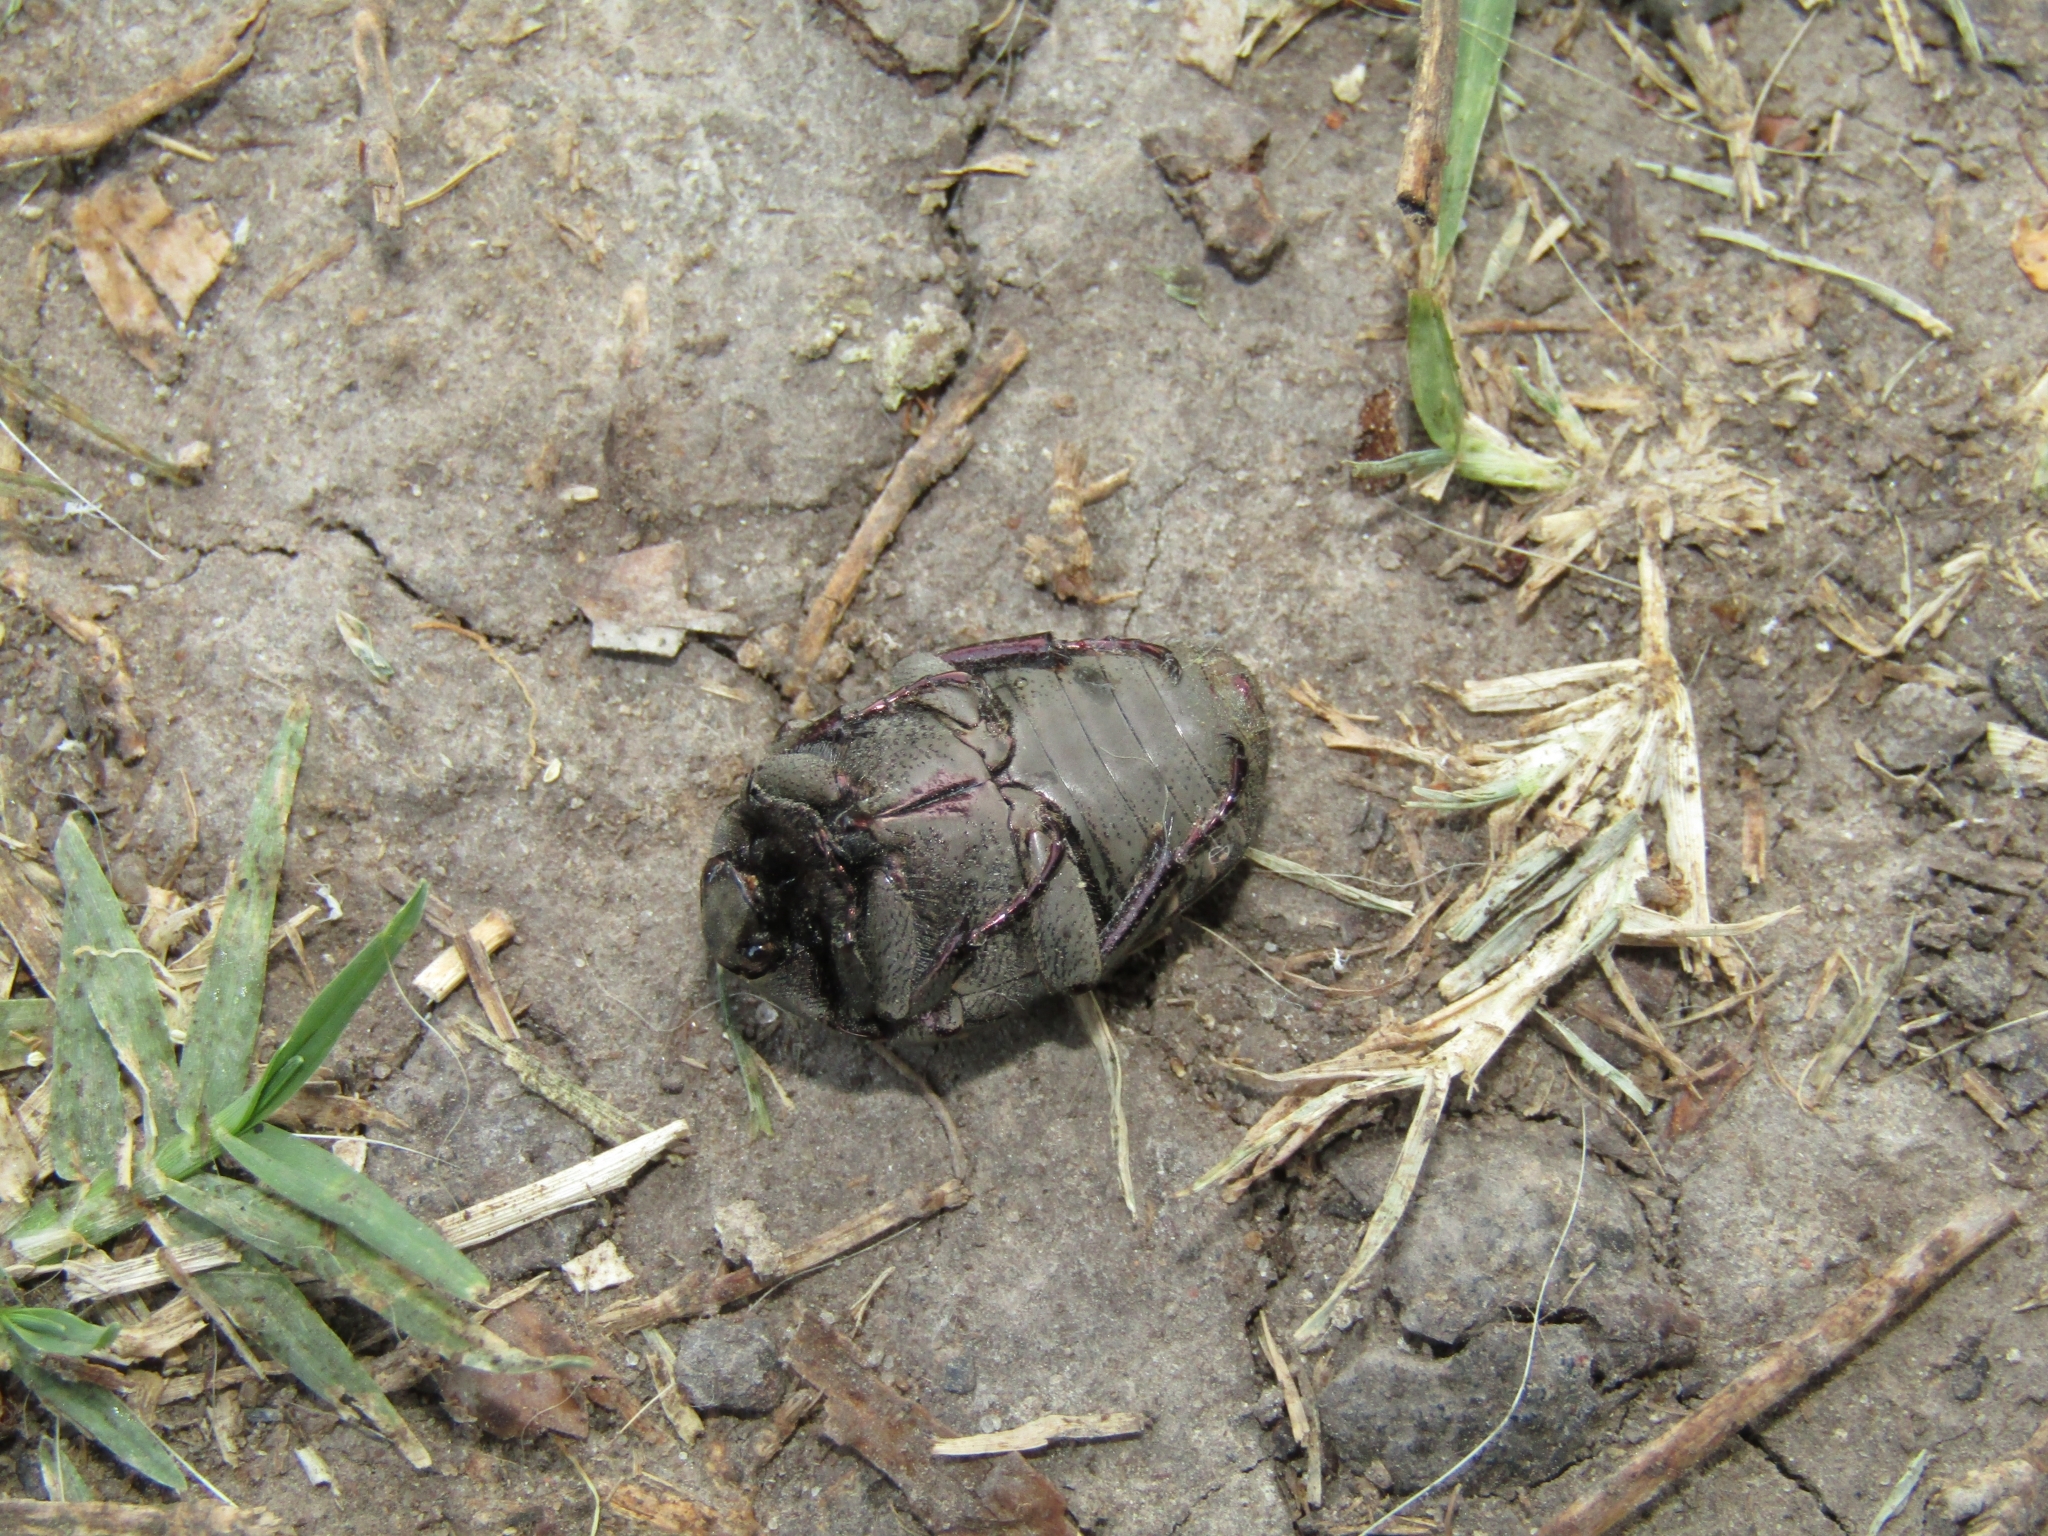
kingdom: Animalia
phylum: Arthropoda
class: Insecta
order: Coleoptera
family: Scarabaeidae
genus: Gymnetis
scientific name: Gymnetis chalcipes
